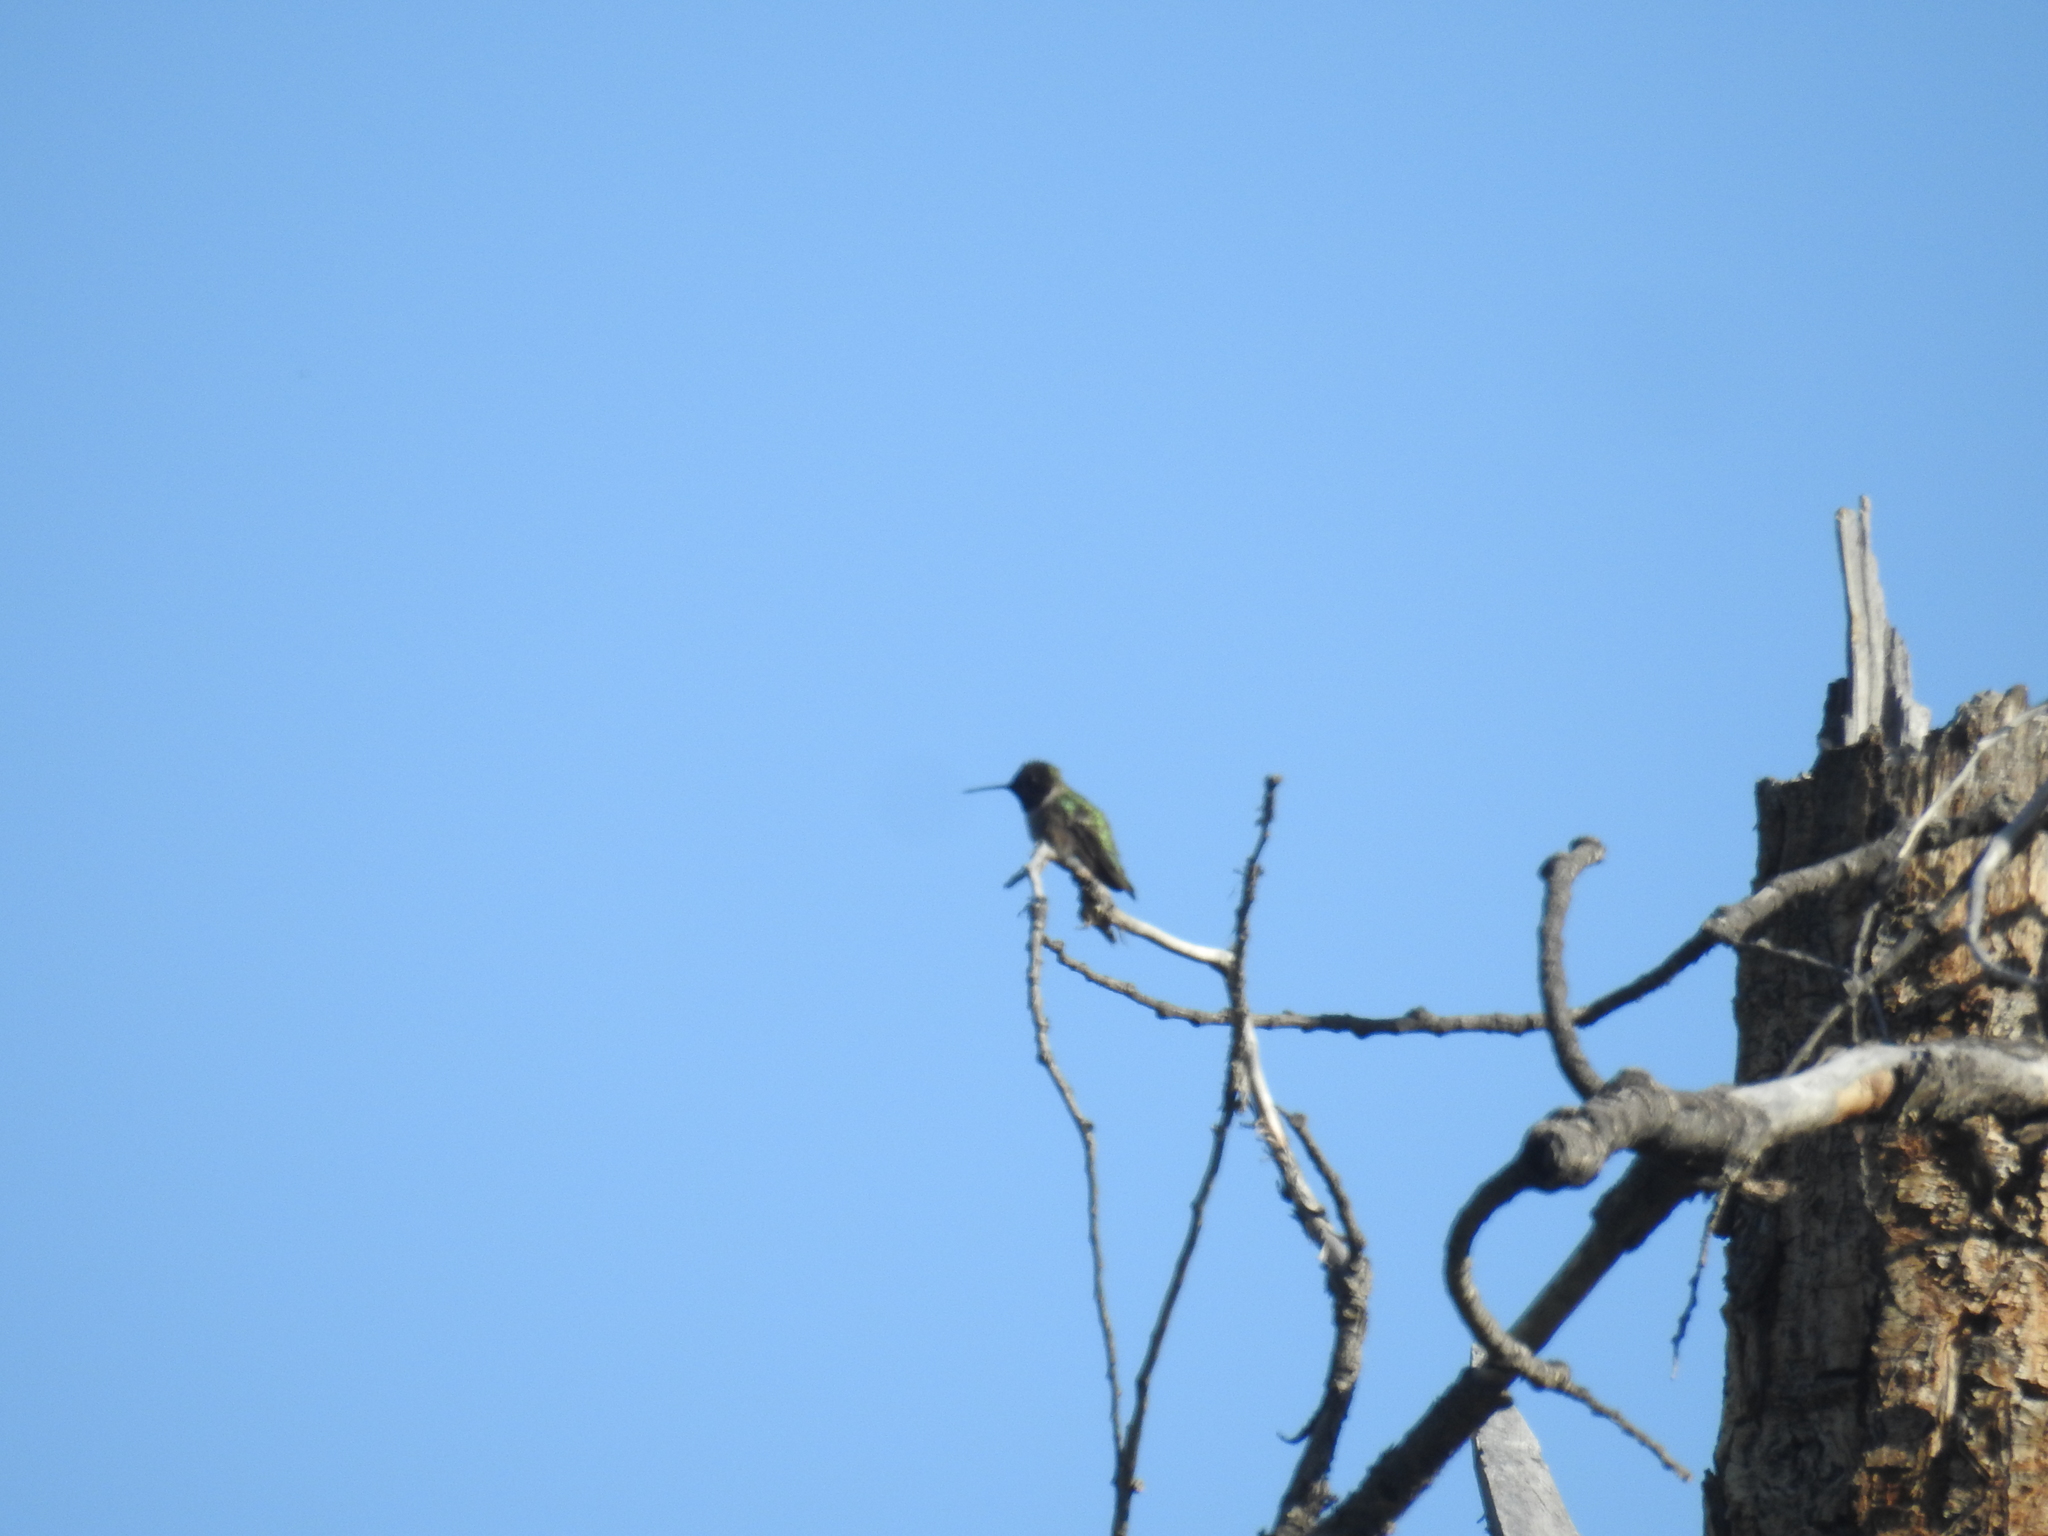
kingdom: Animalia
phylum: Chordata
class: Aves
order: Apodiformes
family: Trochilidae
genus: Calypte
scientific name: Calypte anna
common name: Anna's hummingbird
